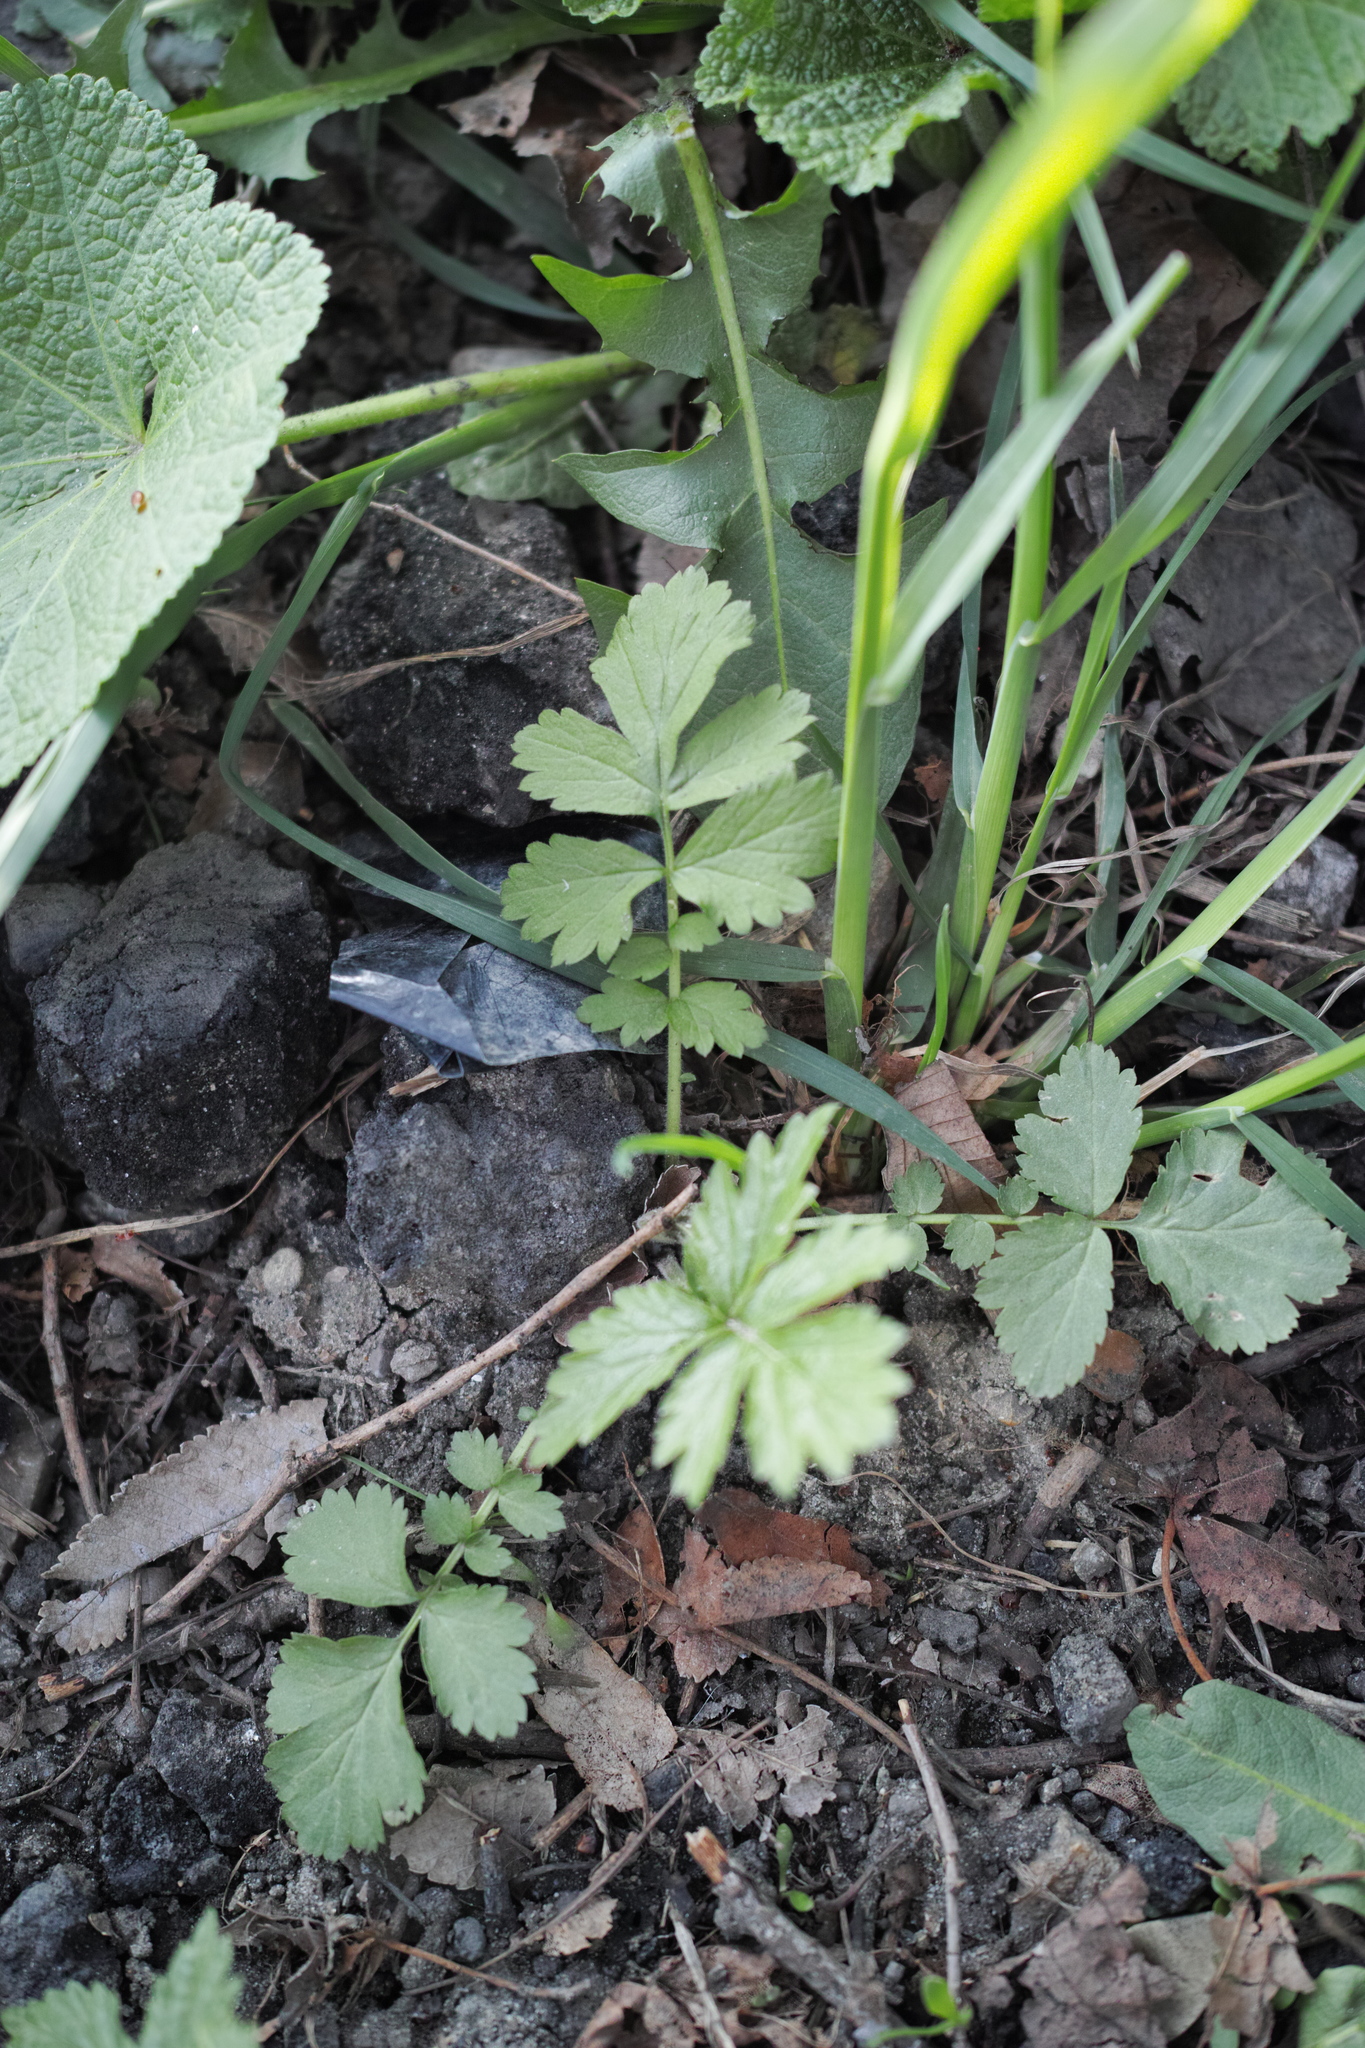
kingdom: Plantae
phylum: Tracheophyta
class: Magnoliopsida
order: Rosales
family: Rosaceae
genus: Geum
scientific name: Geum
